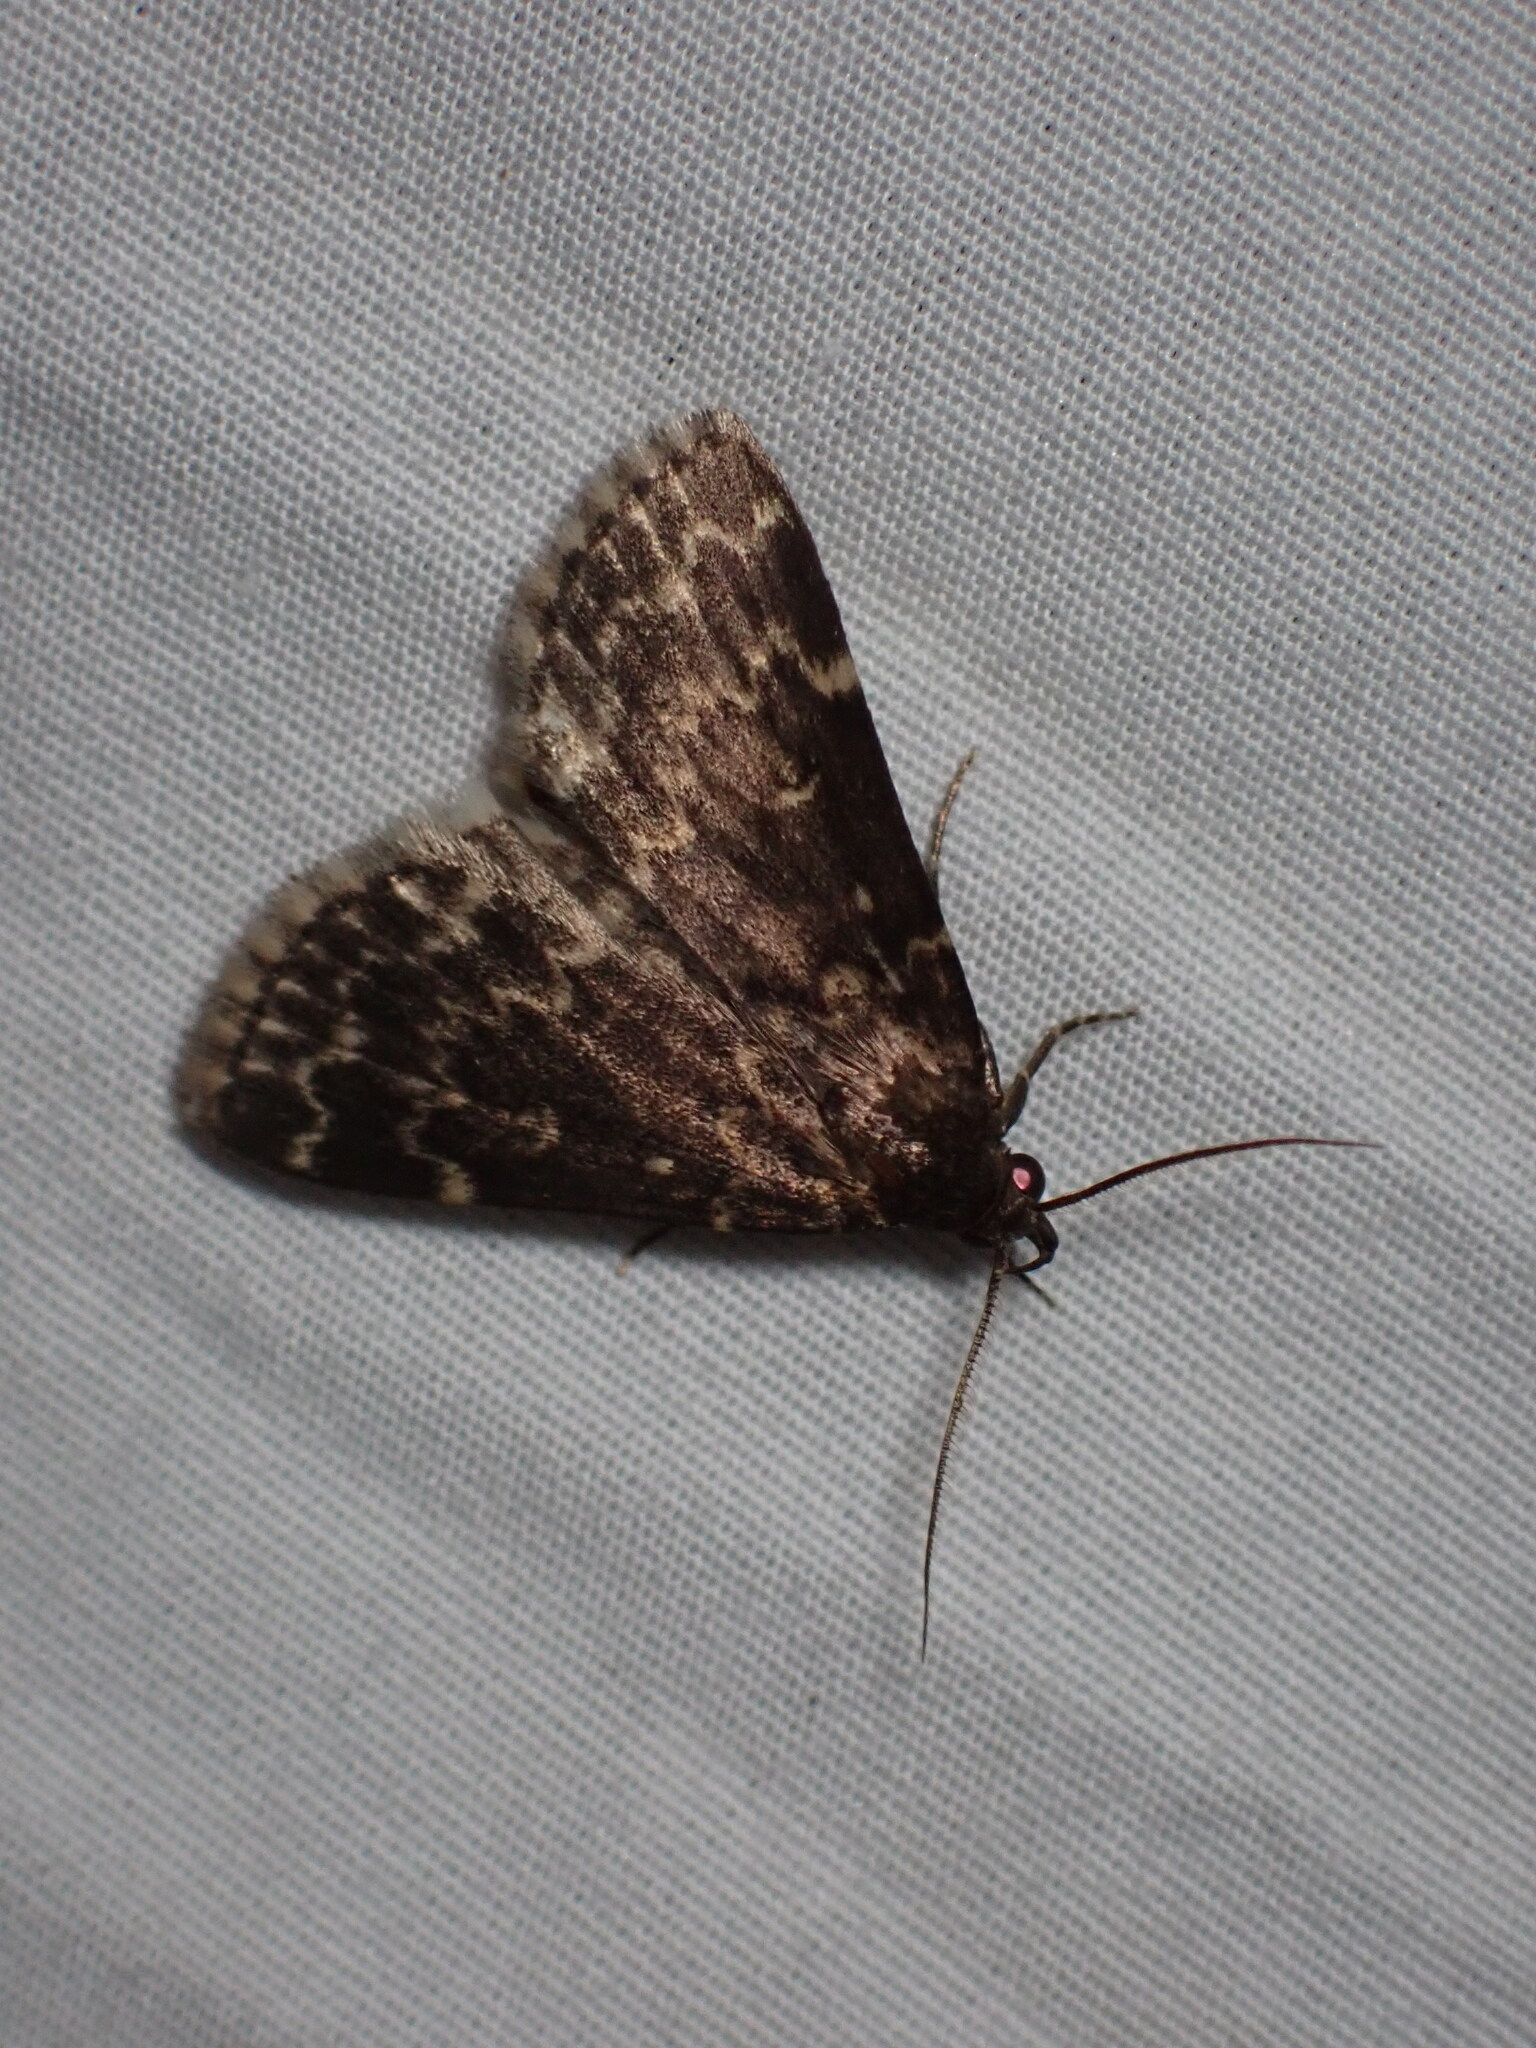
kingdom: Animalia
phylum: Arthropoda
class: Insecta
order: Lepidoptera
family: Erebidae
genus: Idia
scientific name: Idia lubricalis
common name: Twin-striped tabby
